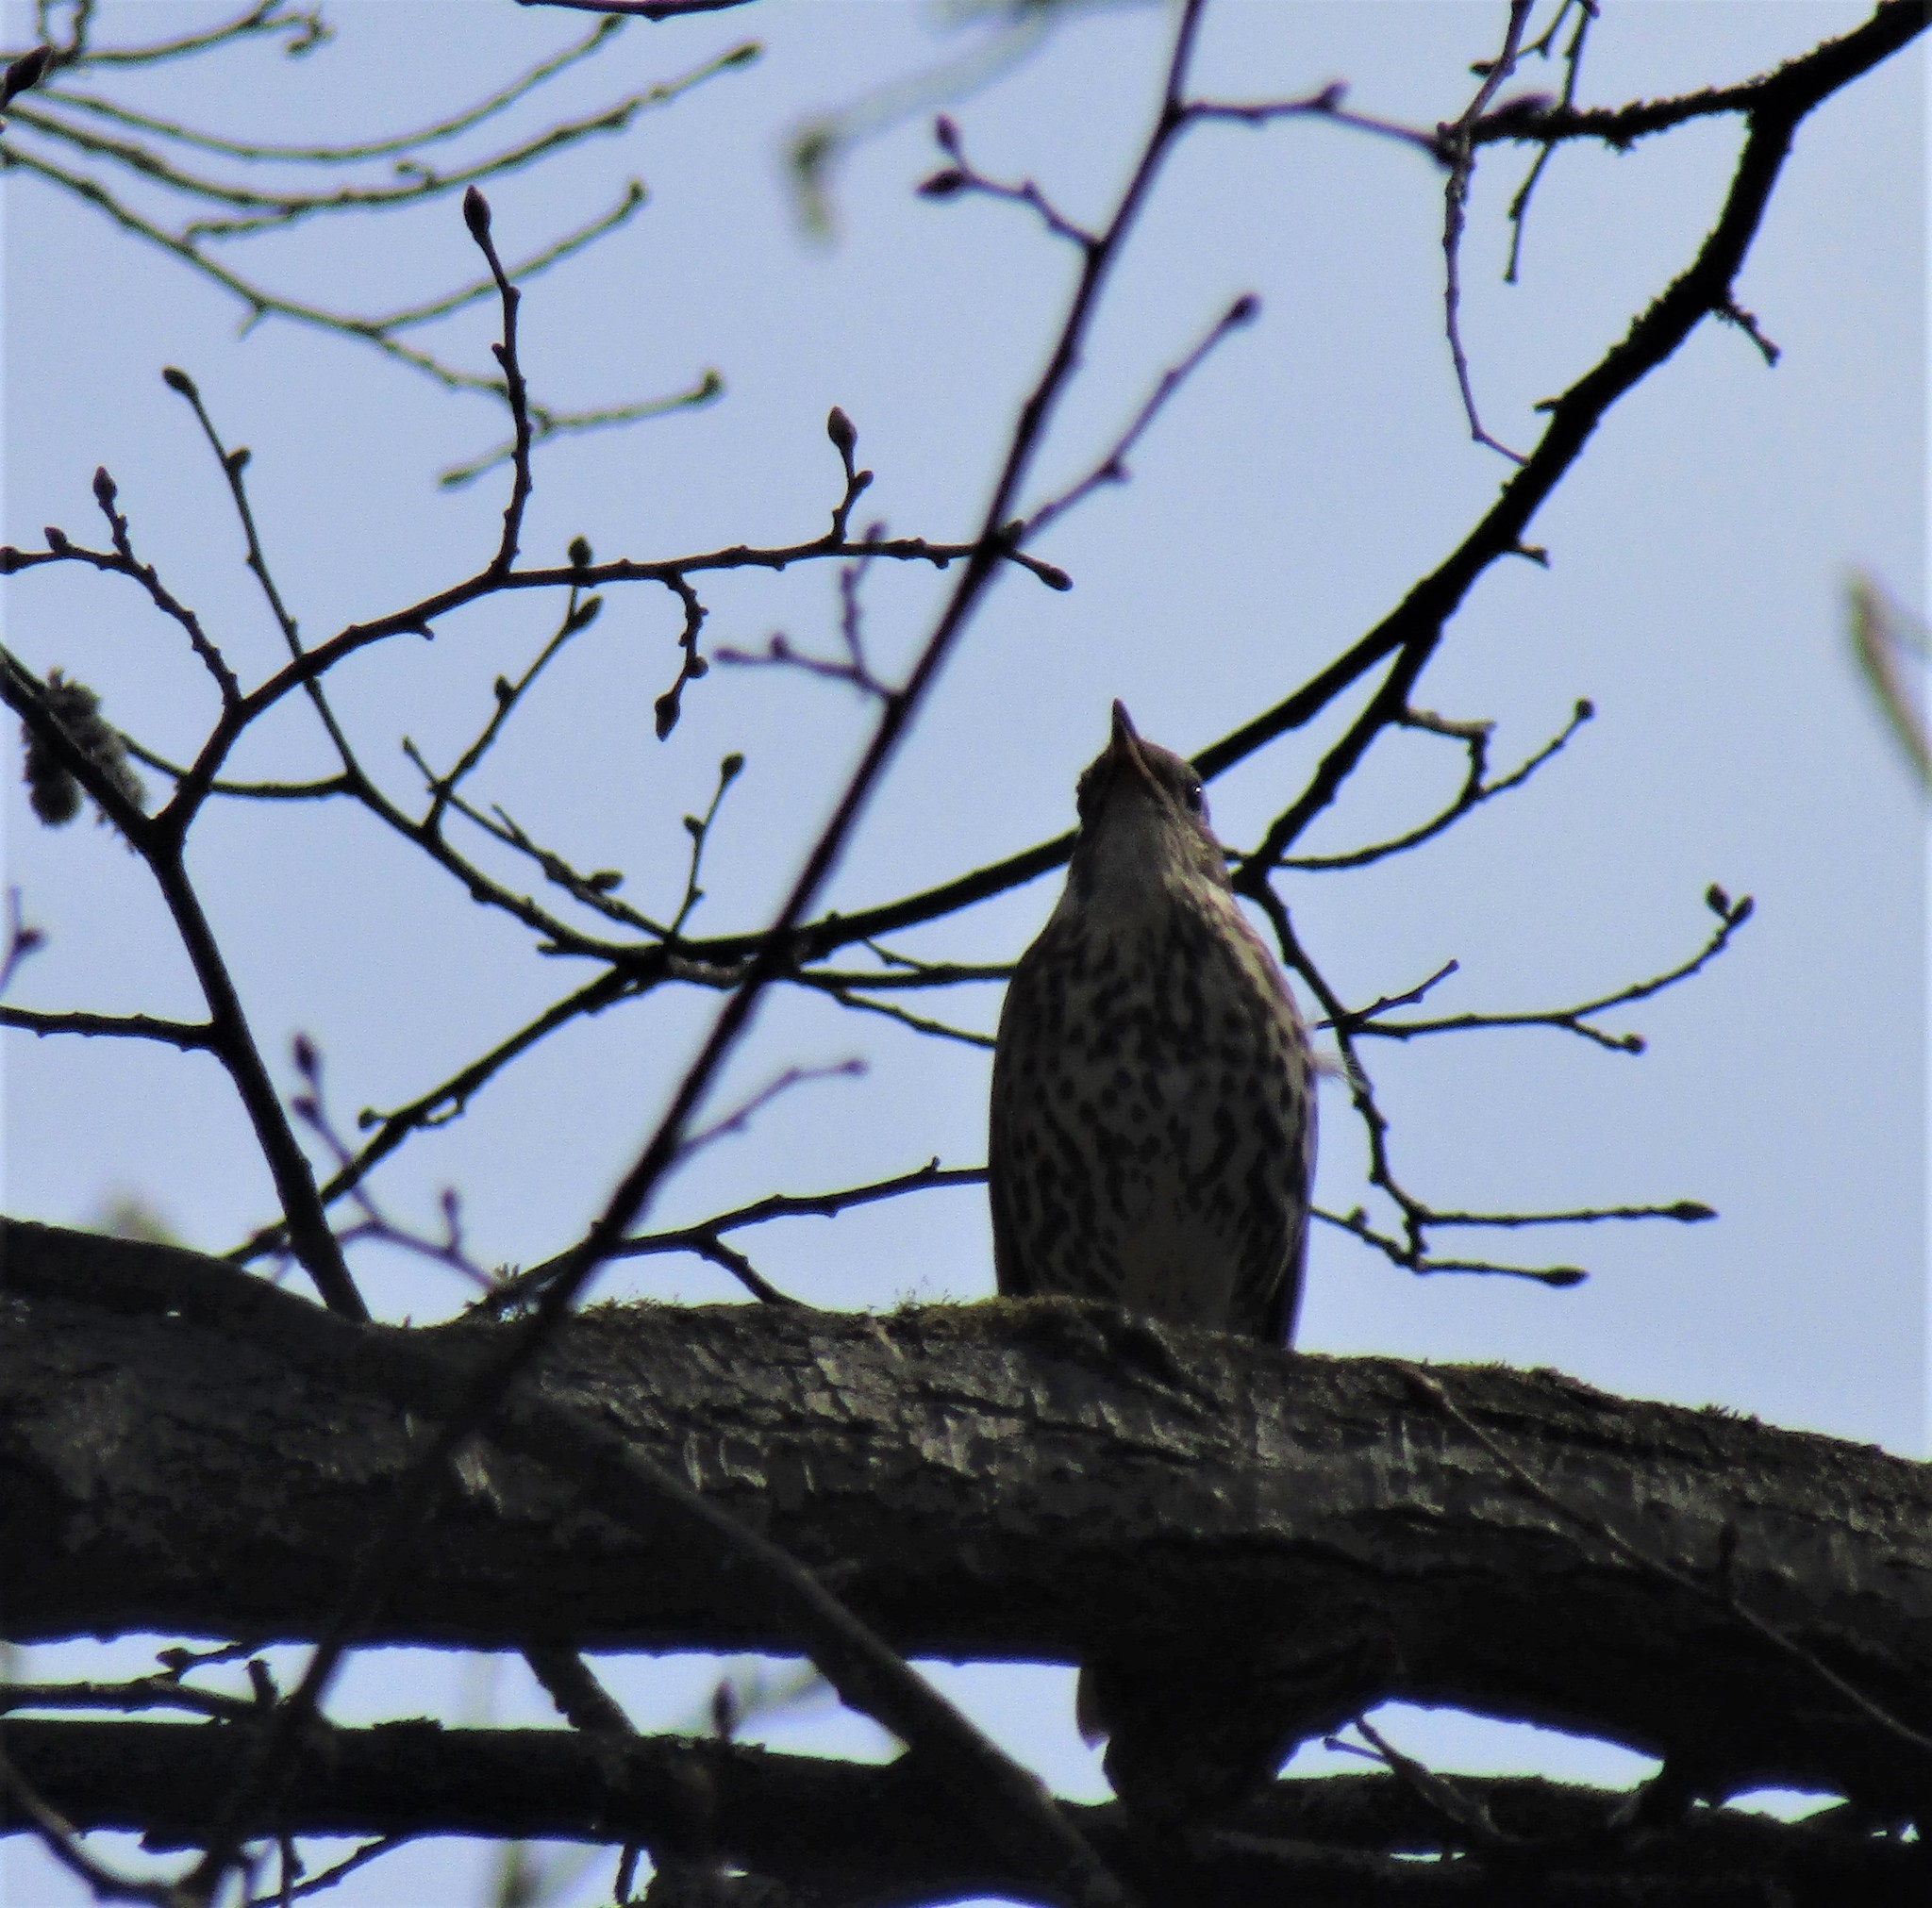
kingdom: Animalia
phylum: Chordata
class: Aves
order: Passeriformes
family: Turdidae
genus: Turdus
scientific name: Turdus philomelos
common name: Song thrush
